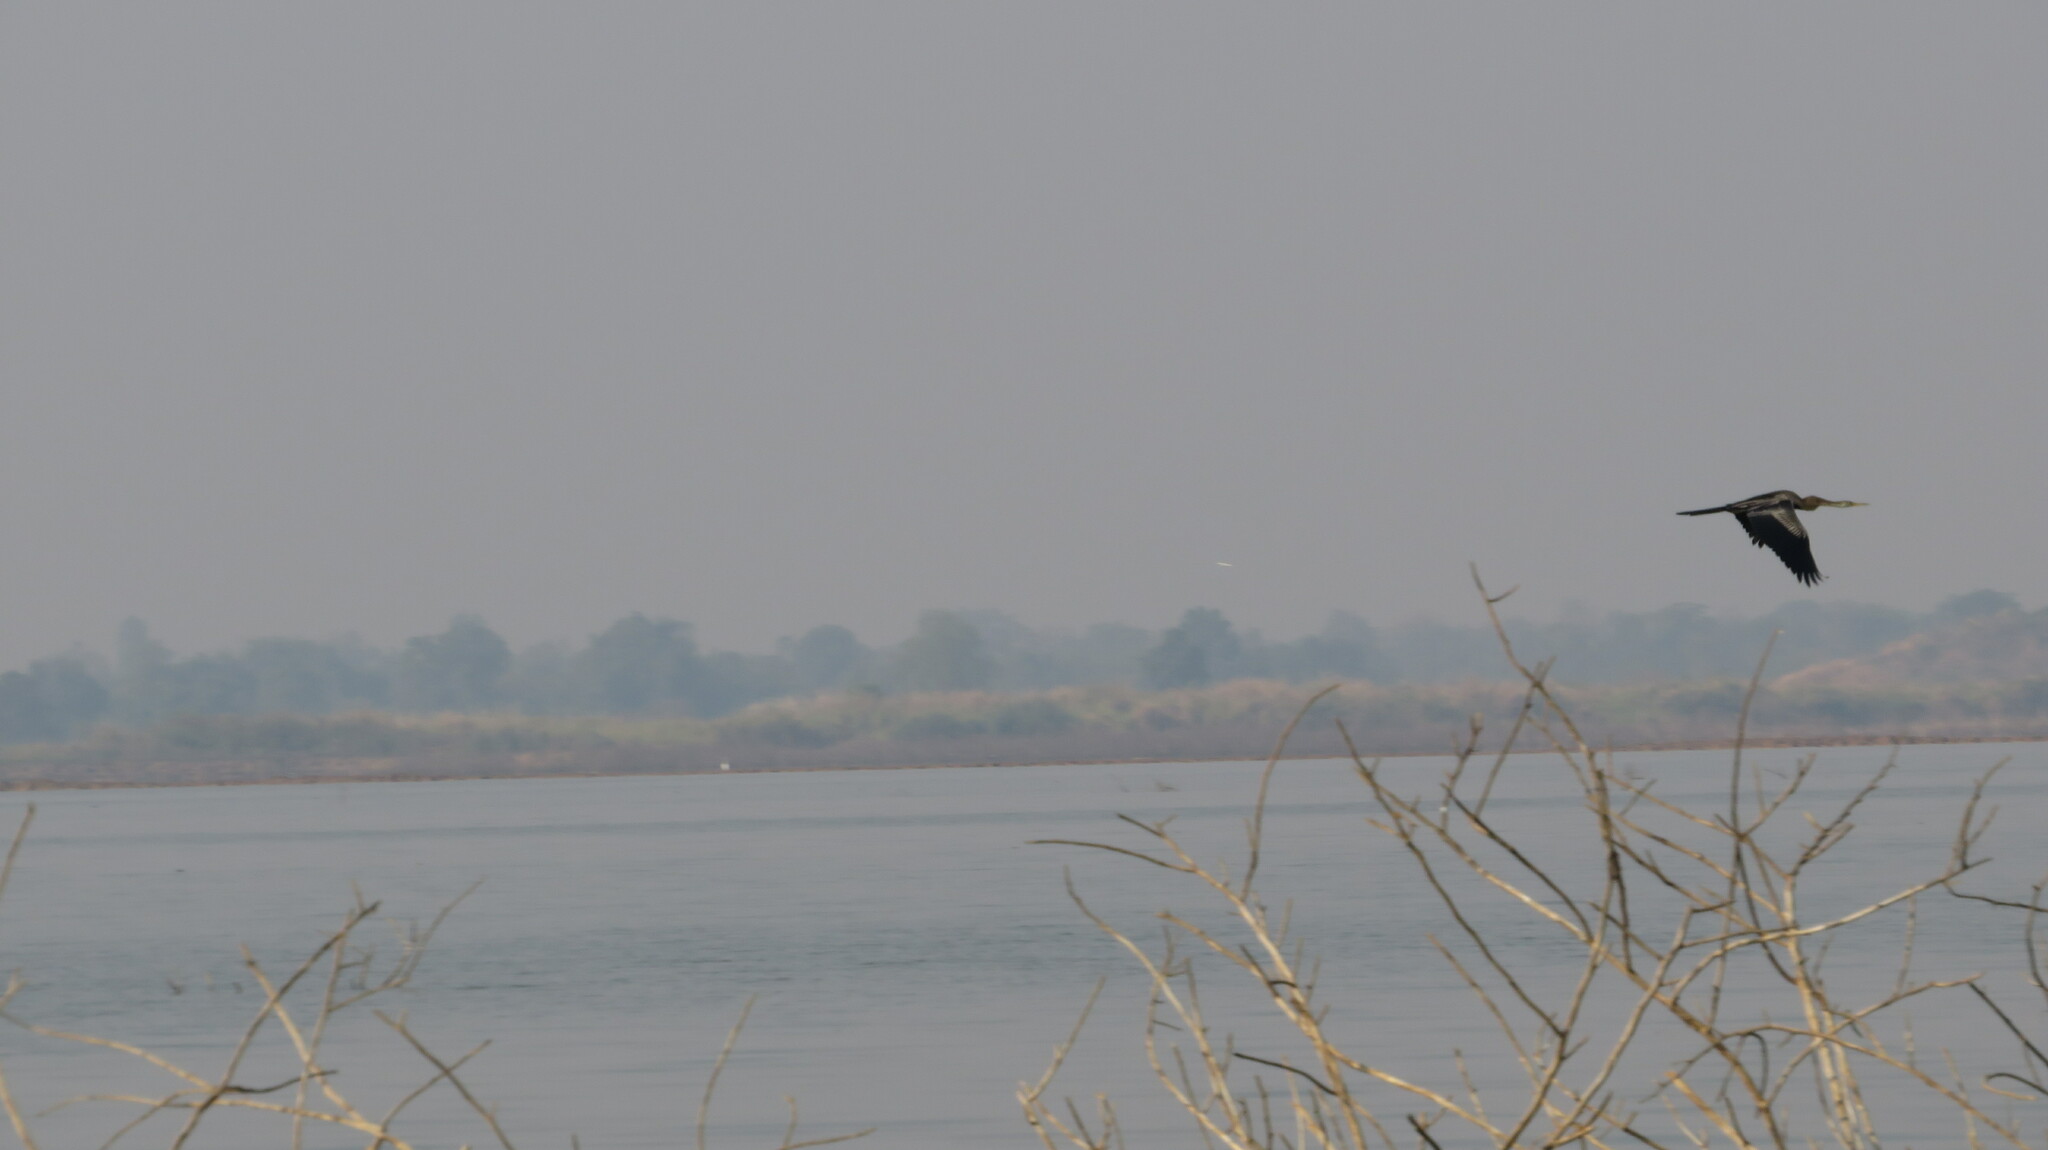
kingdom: Animalia
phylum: Chordata
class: Aves
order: Suliformes
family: Anhingidae
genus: Anhinga
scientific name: Anhinga melanogaster
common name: Oriental darter
